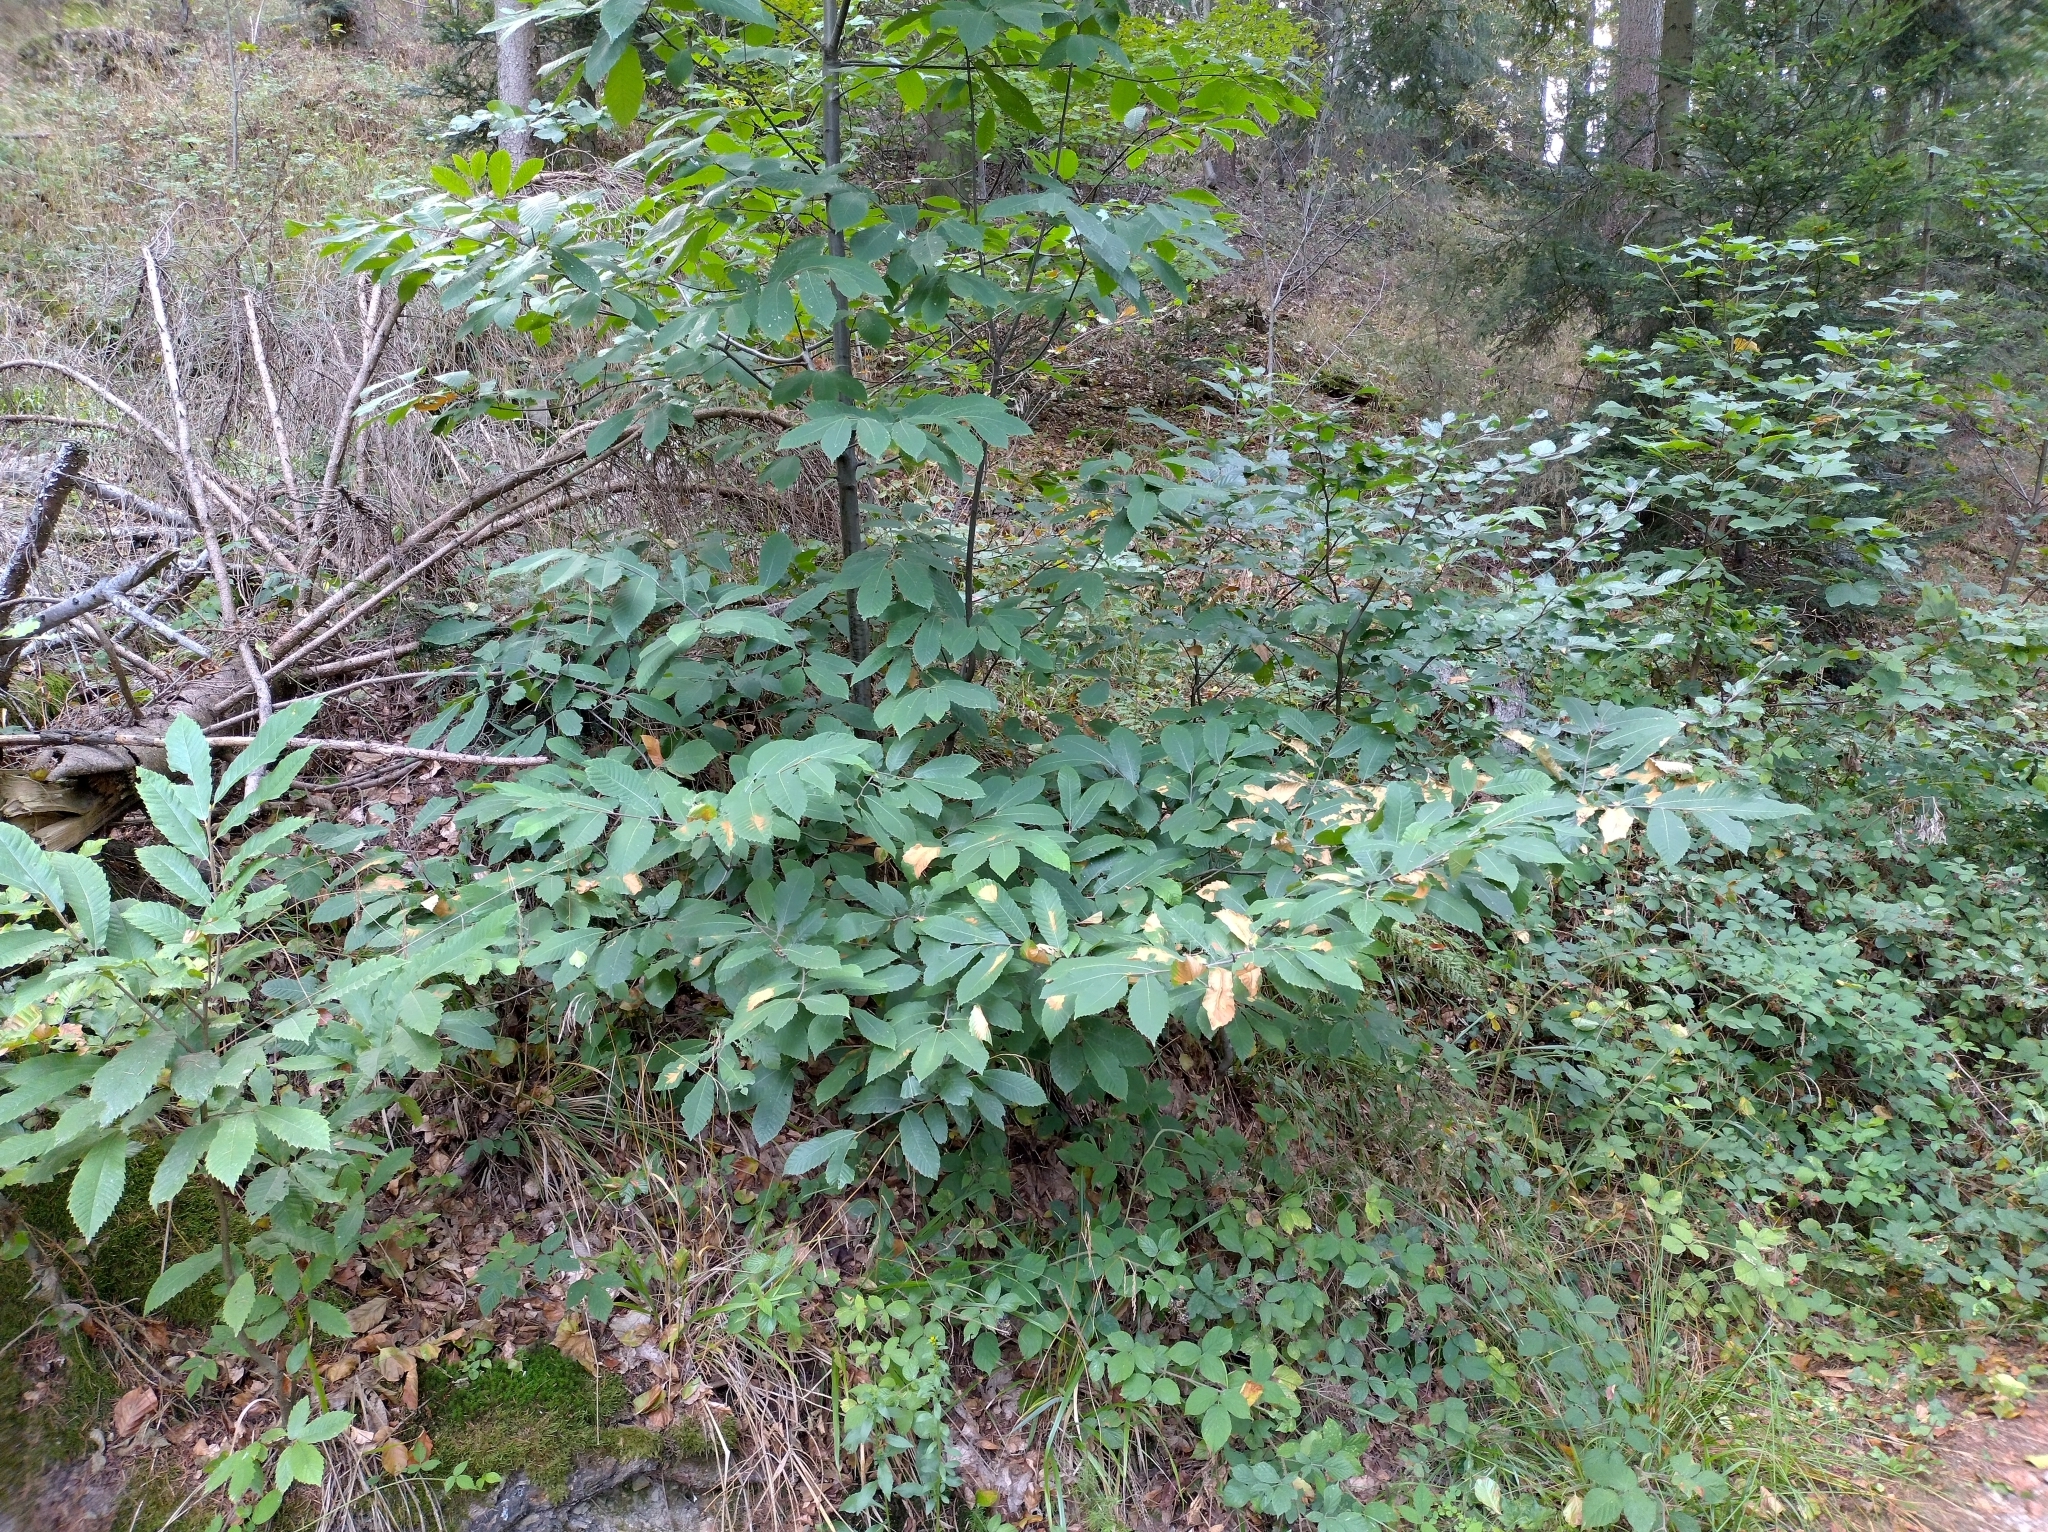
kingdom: Plantae
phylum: Tracheophyta
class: Magnoliopsida
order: Fagales
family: Fagaceae
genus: Castanea
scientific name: Castanea sativa
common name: Sweet chestnut
